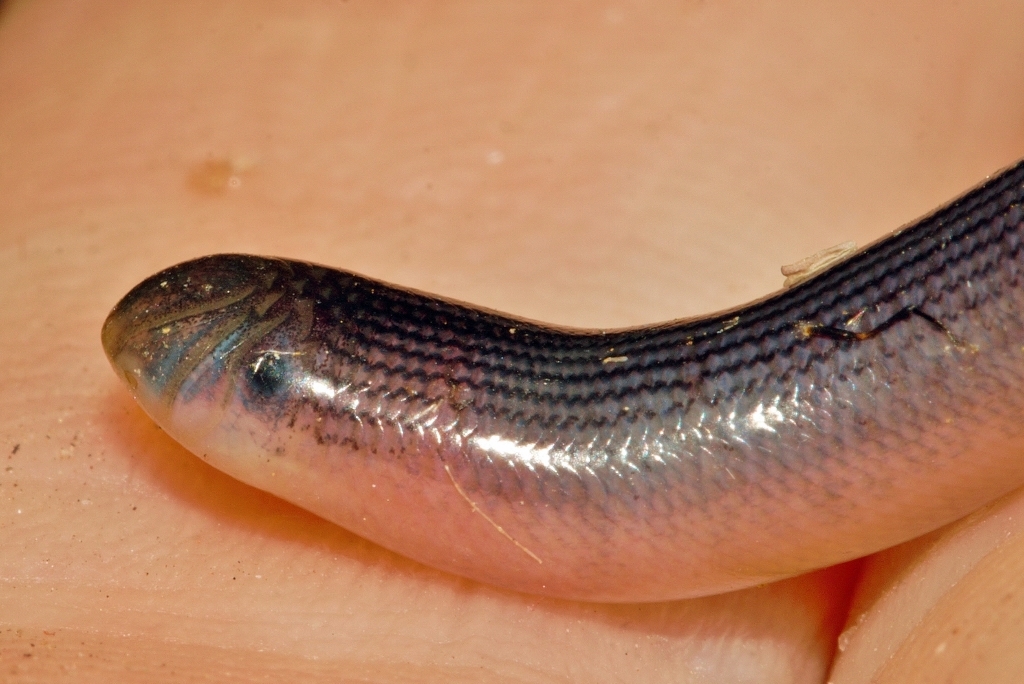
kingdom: Animalia
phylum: Chordata
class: Squamata
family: Typhlopidae
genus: Afrotyphlops
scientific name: Afrotyphlops mucruso
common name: Zambezi blind snake
